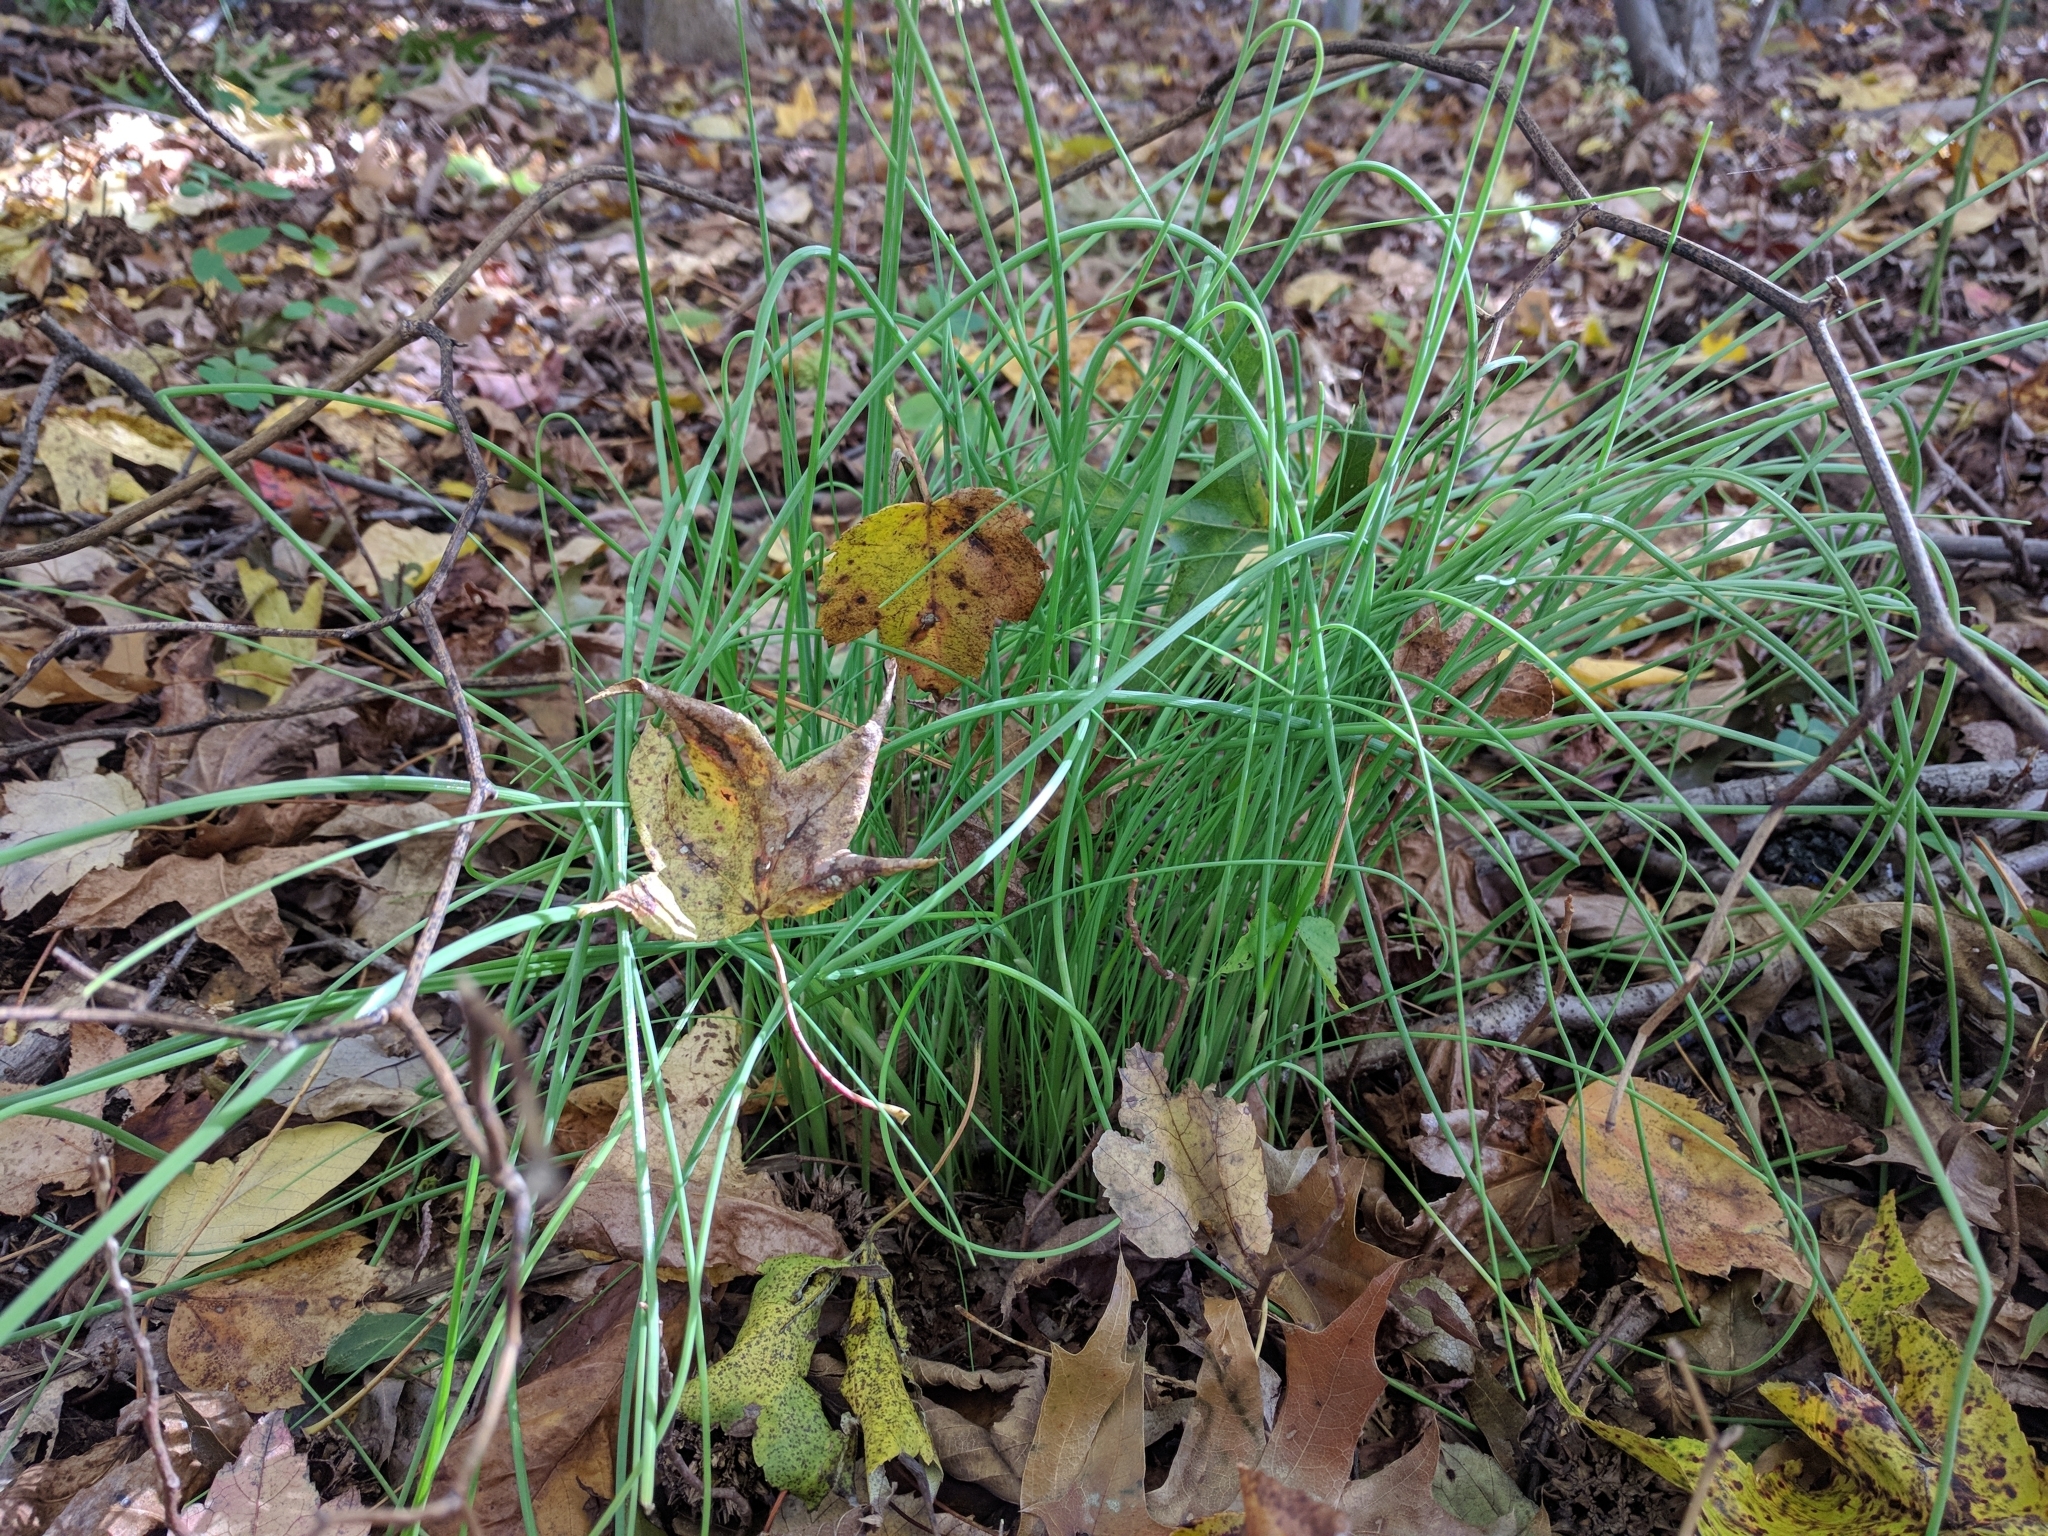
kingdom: Plantae
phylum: Tracheophyta
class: Liliopsida
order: Asparagales
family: Amaryllidaceae
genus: Allium
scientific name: Allium vineale
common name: Crow garlic
